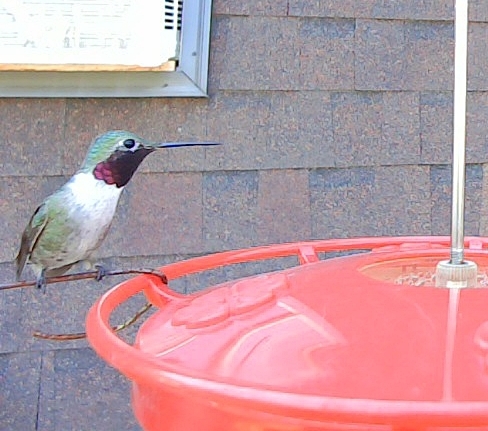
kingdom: Animalia
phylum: Chordata
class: Aves
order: Apodiformes
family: Trochilidae
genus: Selasphorus
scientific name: Selasphorus platycercus
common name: Broad-tailed hummingbird
